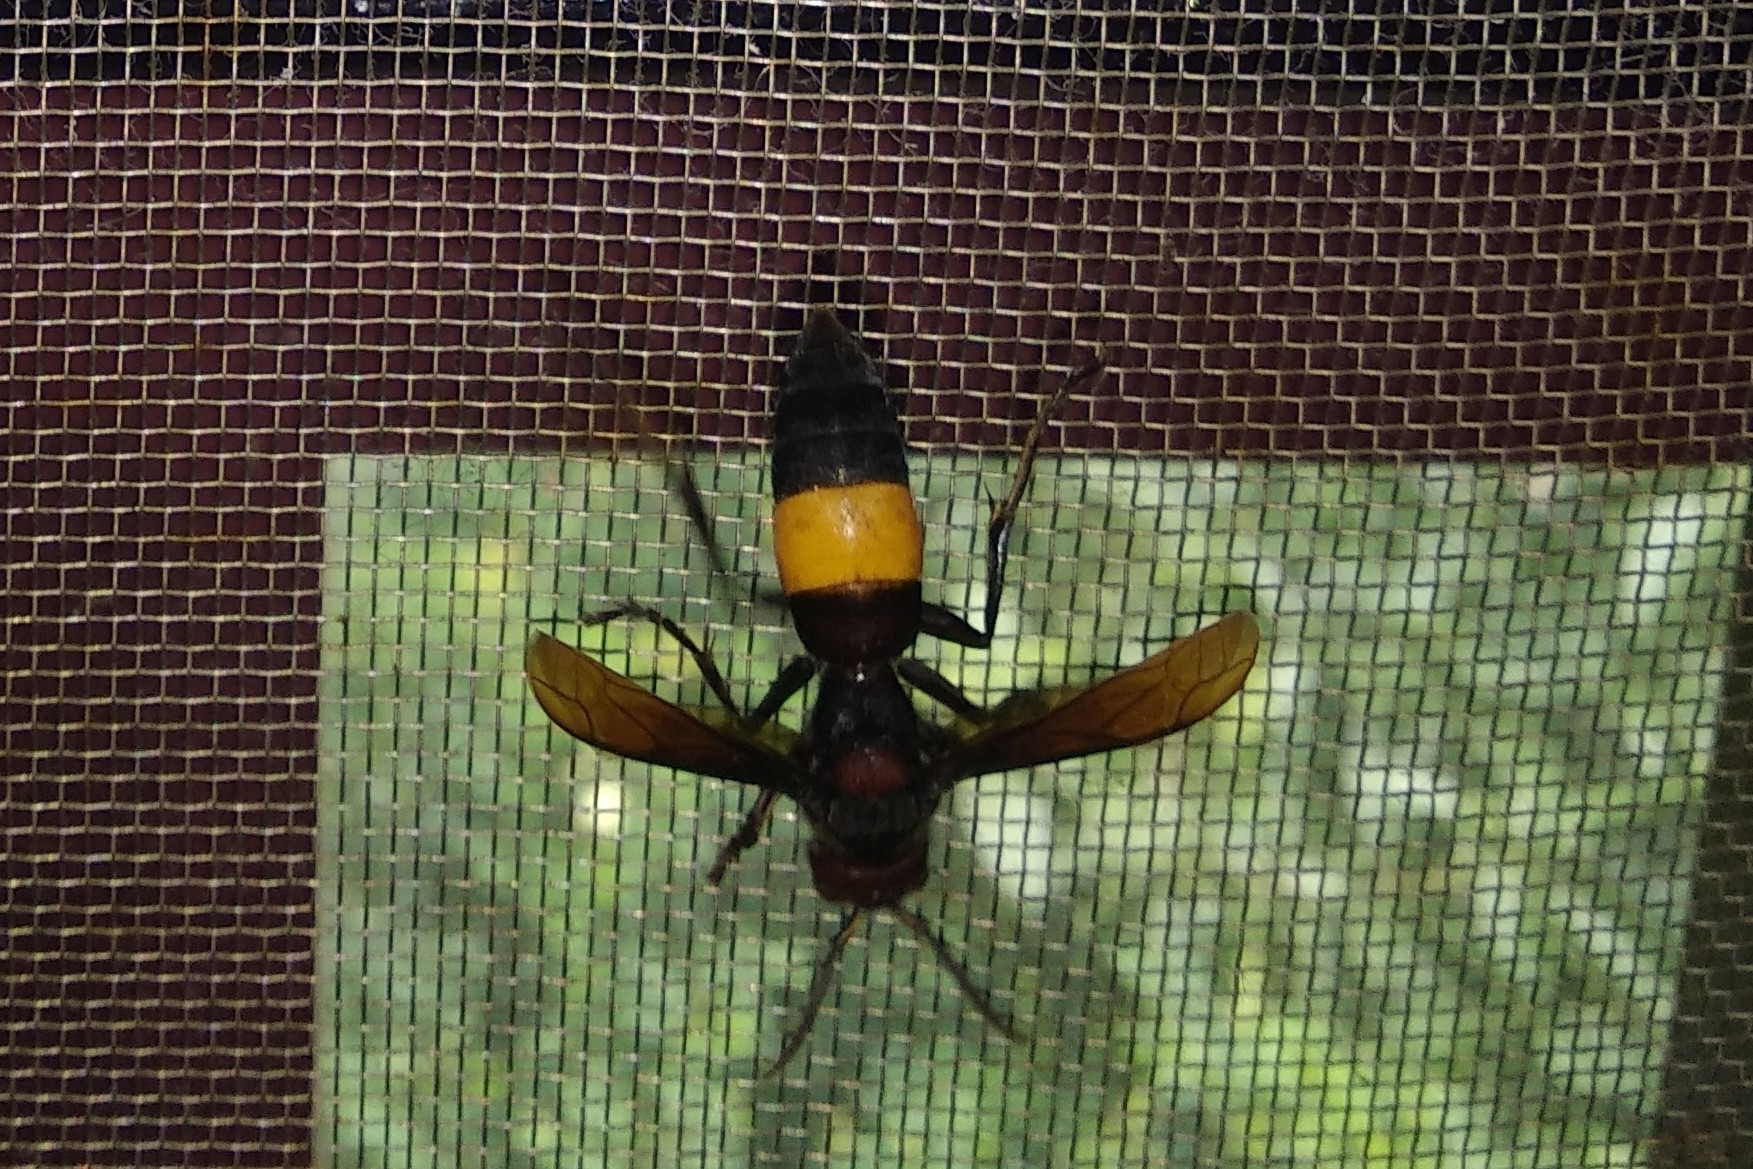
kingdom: Animalia
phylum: Arthropoda
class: Insecta
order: Hymenoptera
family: Vespidae
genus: Vespa
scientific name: Vespa tropica
